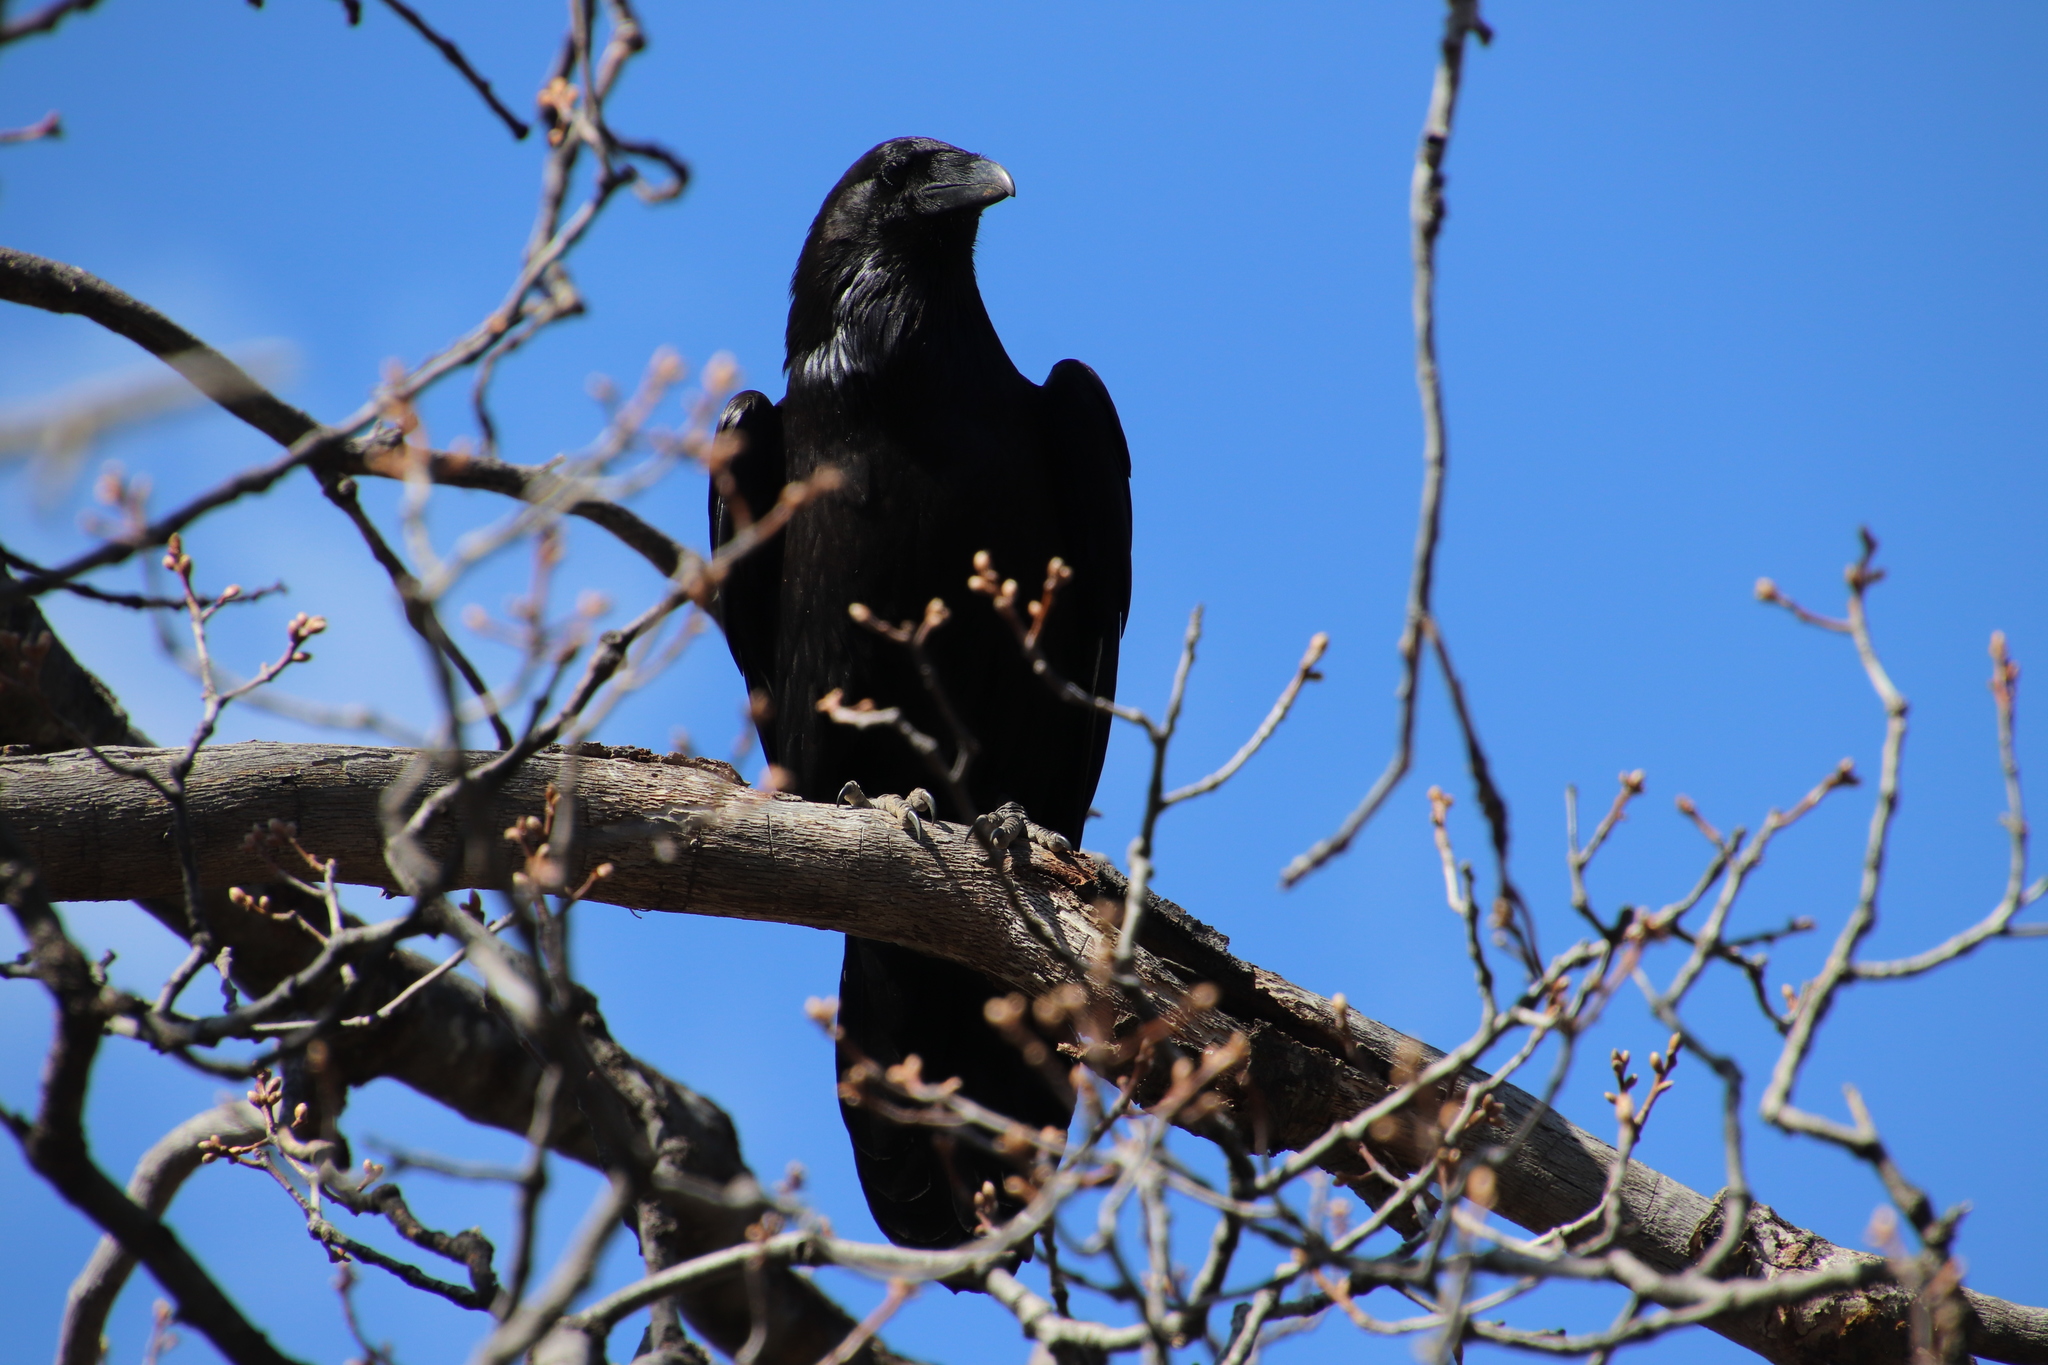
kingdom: Animalia
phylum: Chordata
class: Aves
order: Passeriformes
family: Corvidae
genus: Corvus
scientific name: Corvus corax
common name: Common raven
